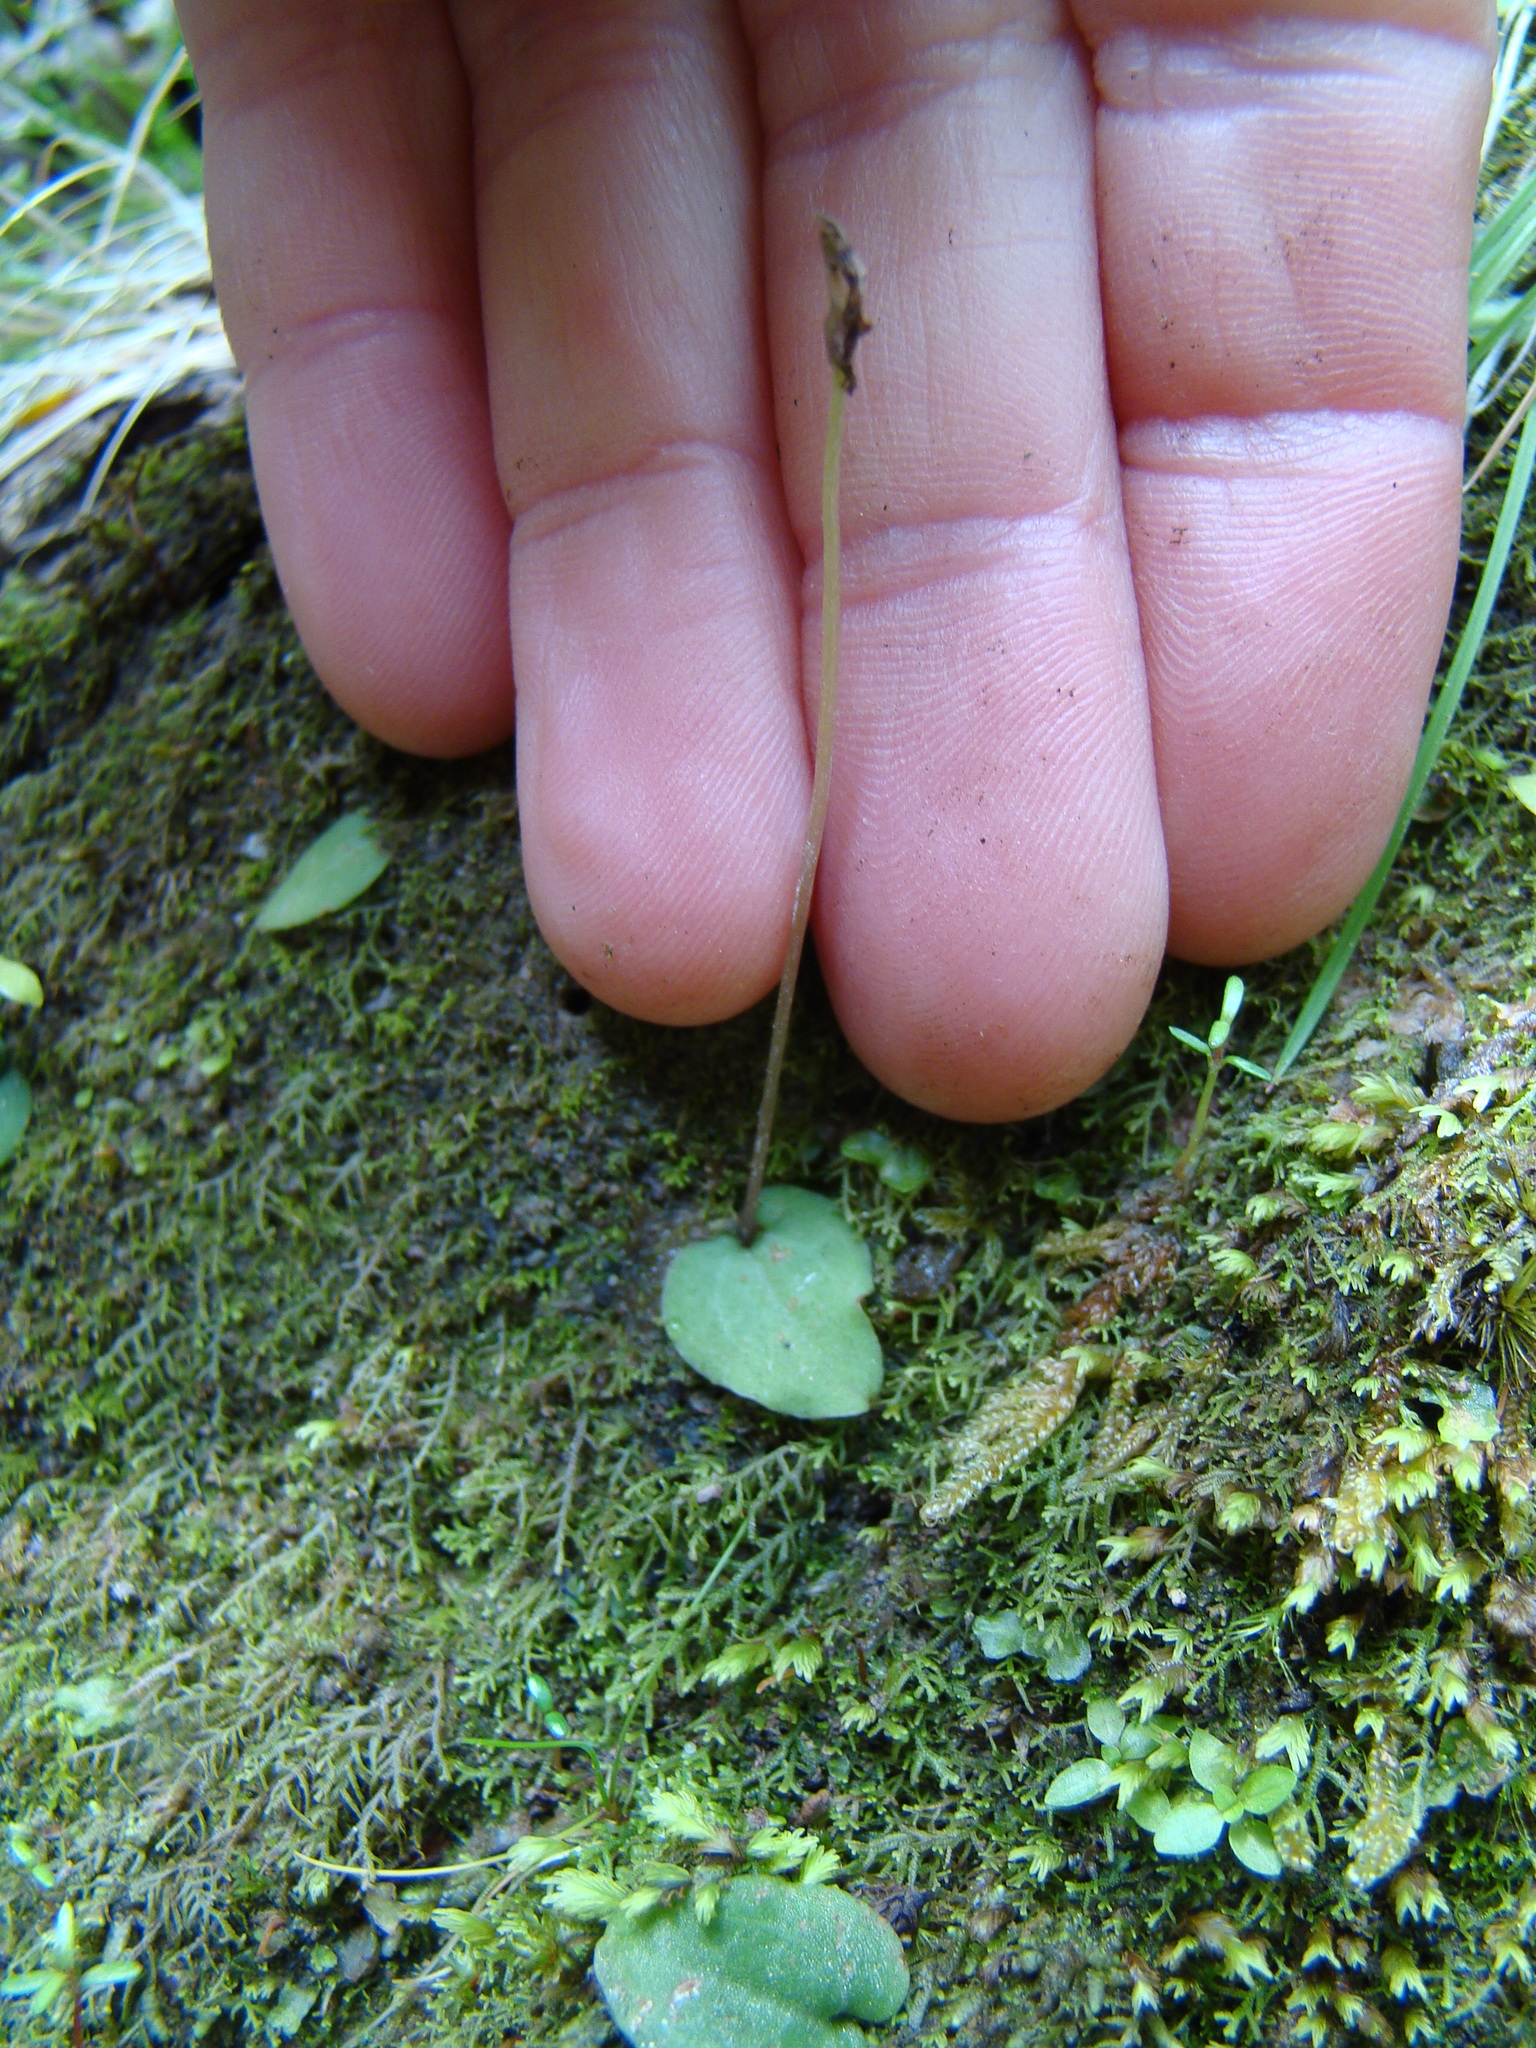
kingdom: Plantae
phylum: Tracheophyta
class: Liliopsida
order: Asparagales
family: Orchidaceae
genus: Cyrtostylis
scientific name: Cyrtostylis rotundifolia
